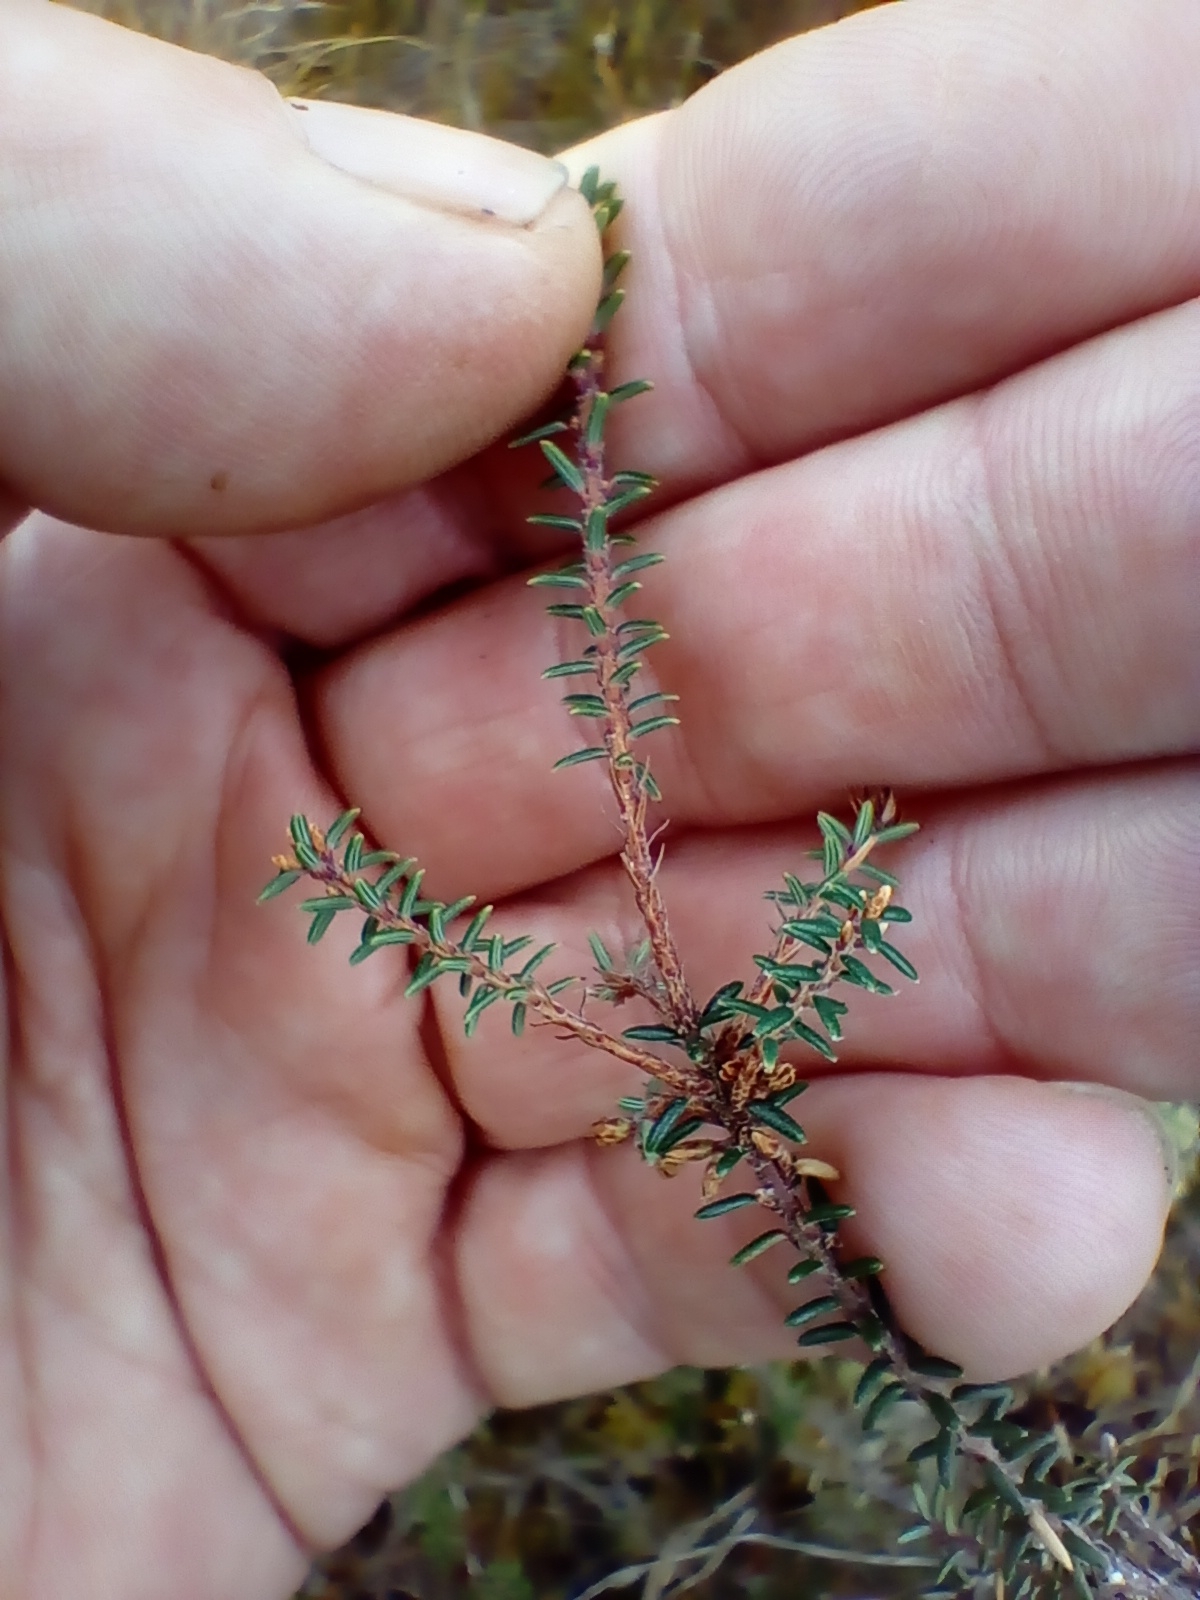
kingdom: Plantae
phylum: Tracheophyta
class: Magnoliopsida
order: Ericales
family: Ericaceae
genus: Androstoma
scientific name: Androstoma empetrifolia
